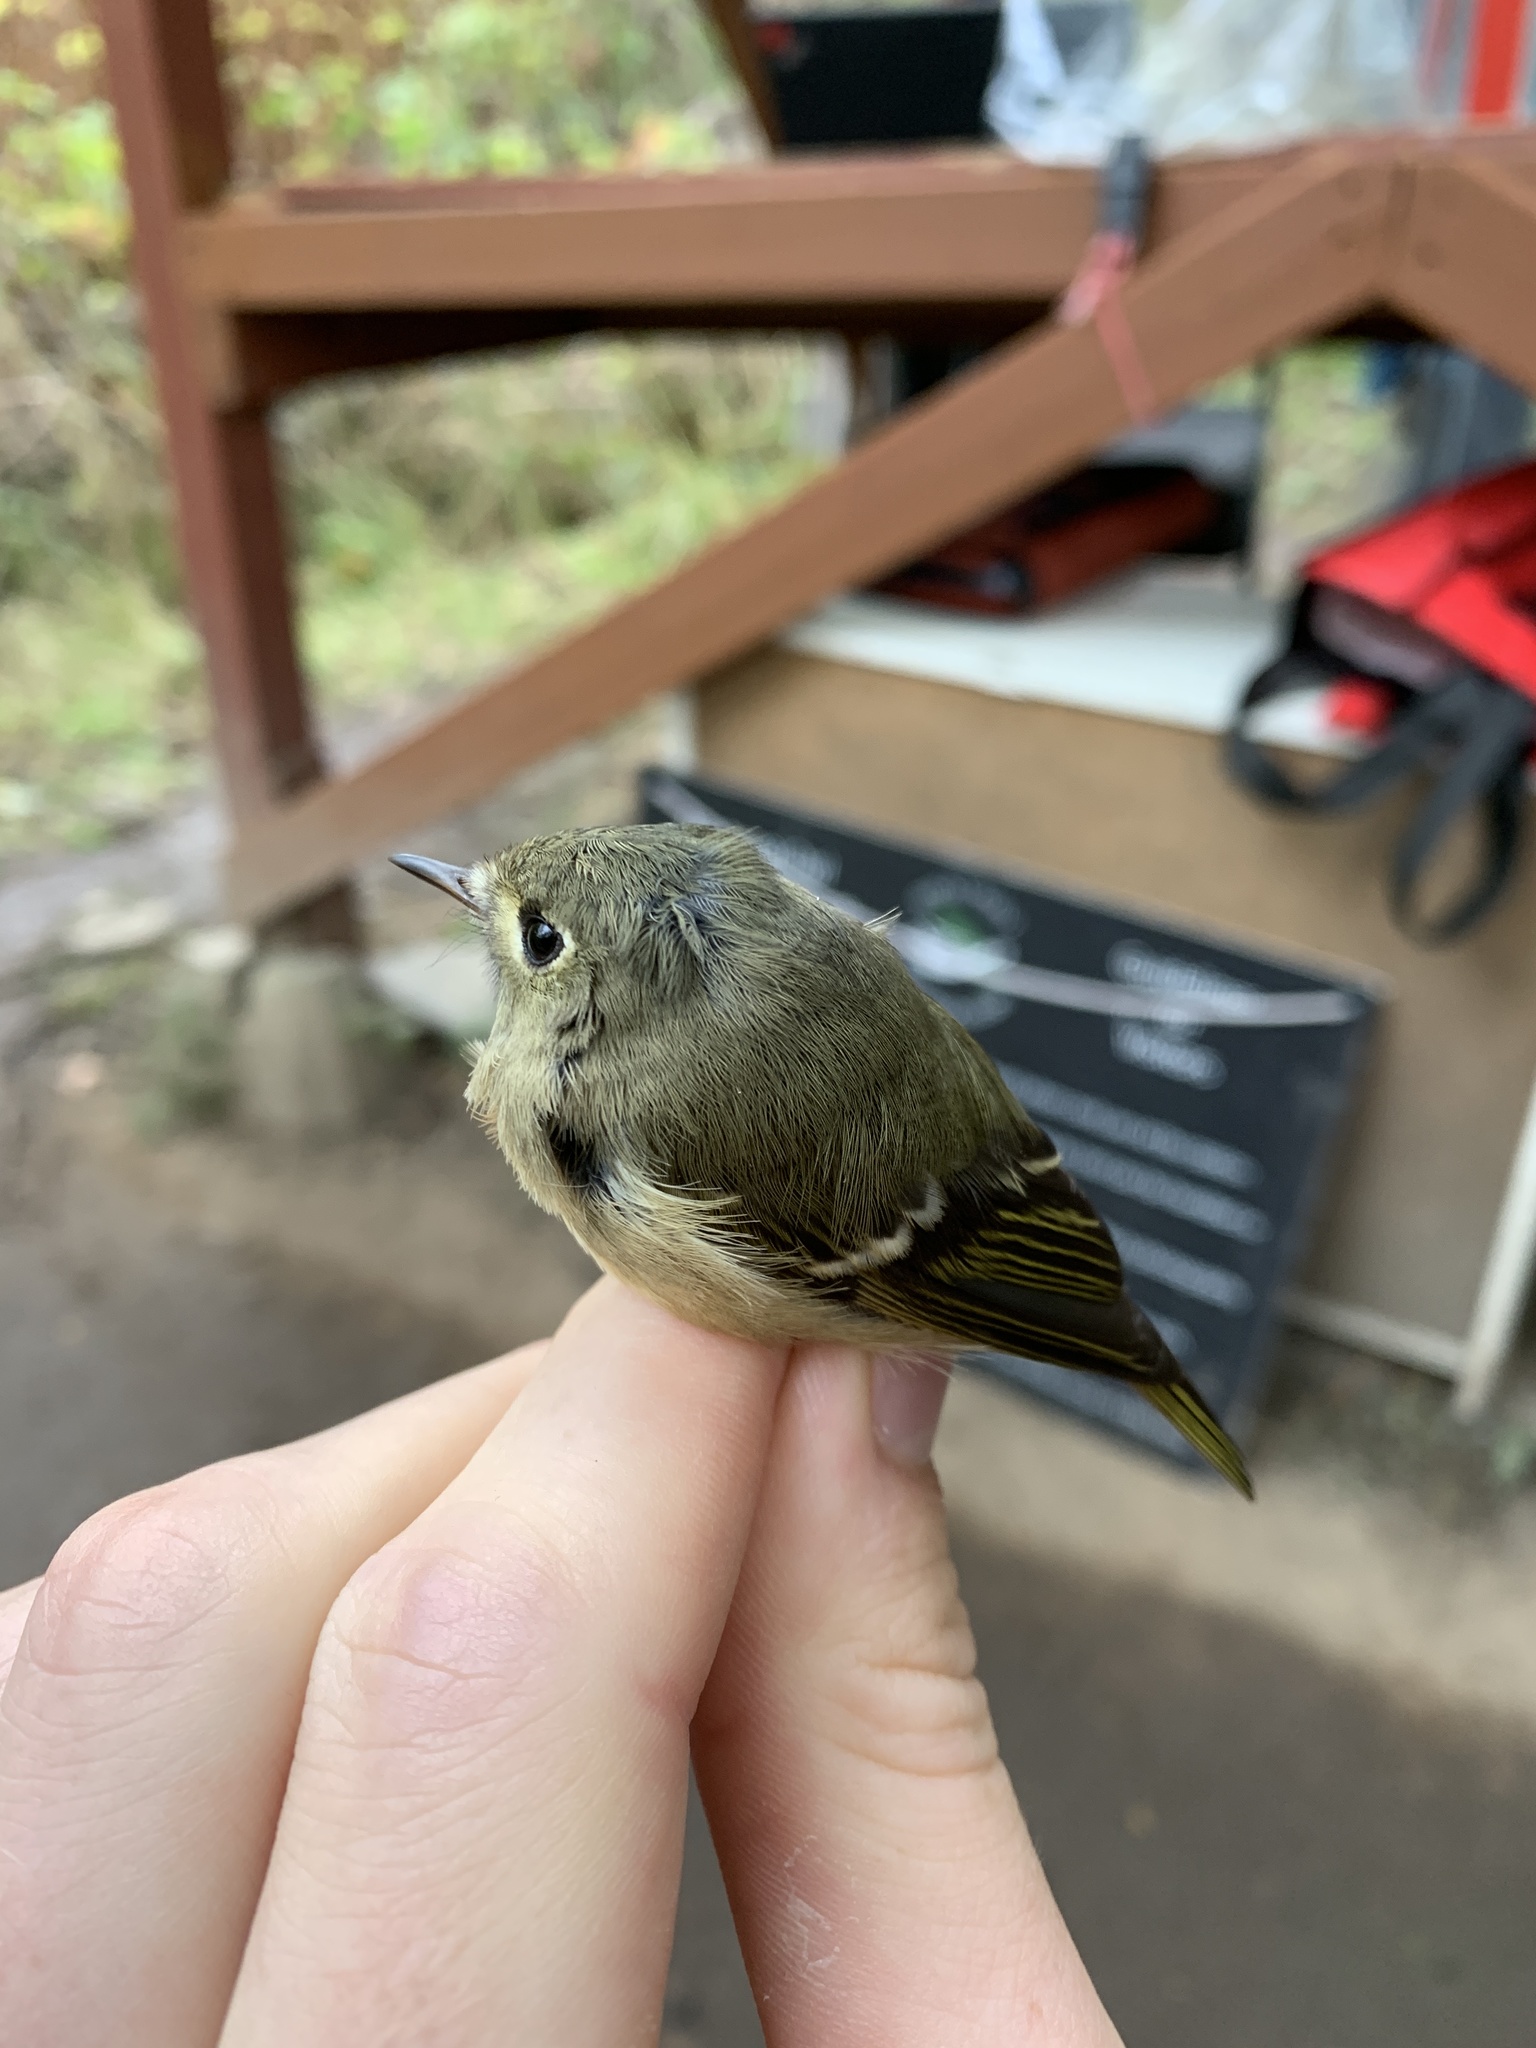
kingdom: Animalia
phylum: Chordata
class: Aves
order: Passeriformes
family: Regulidae
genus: Regulus
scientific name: Regulus calendula
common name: Ruby-crowned kinglet
